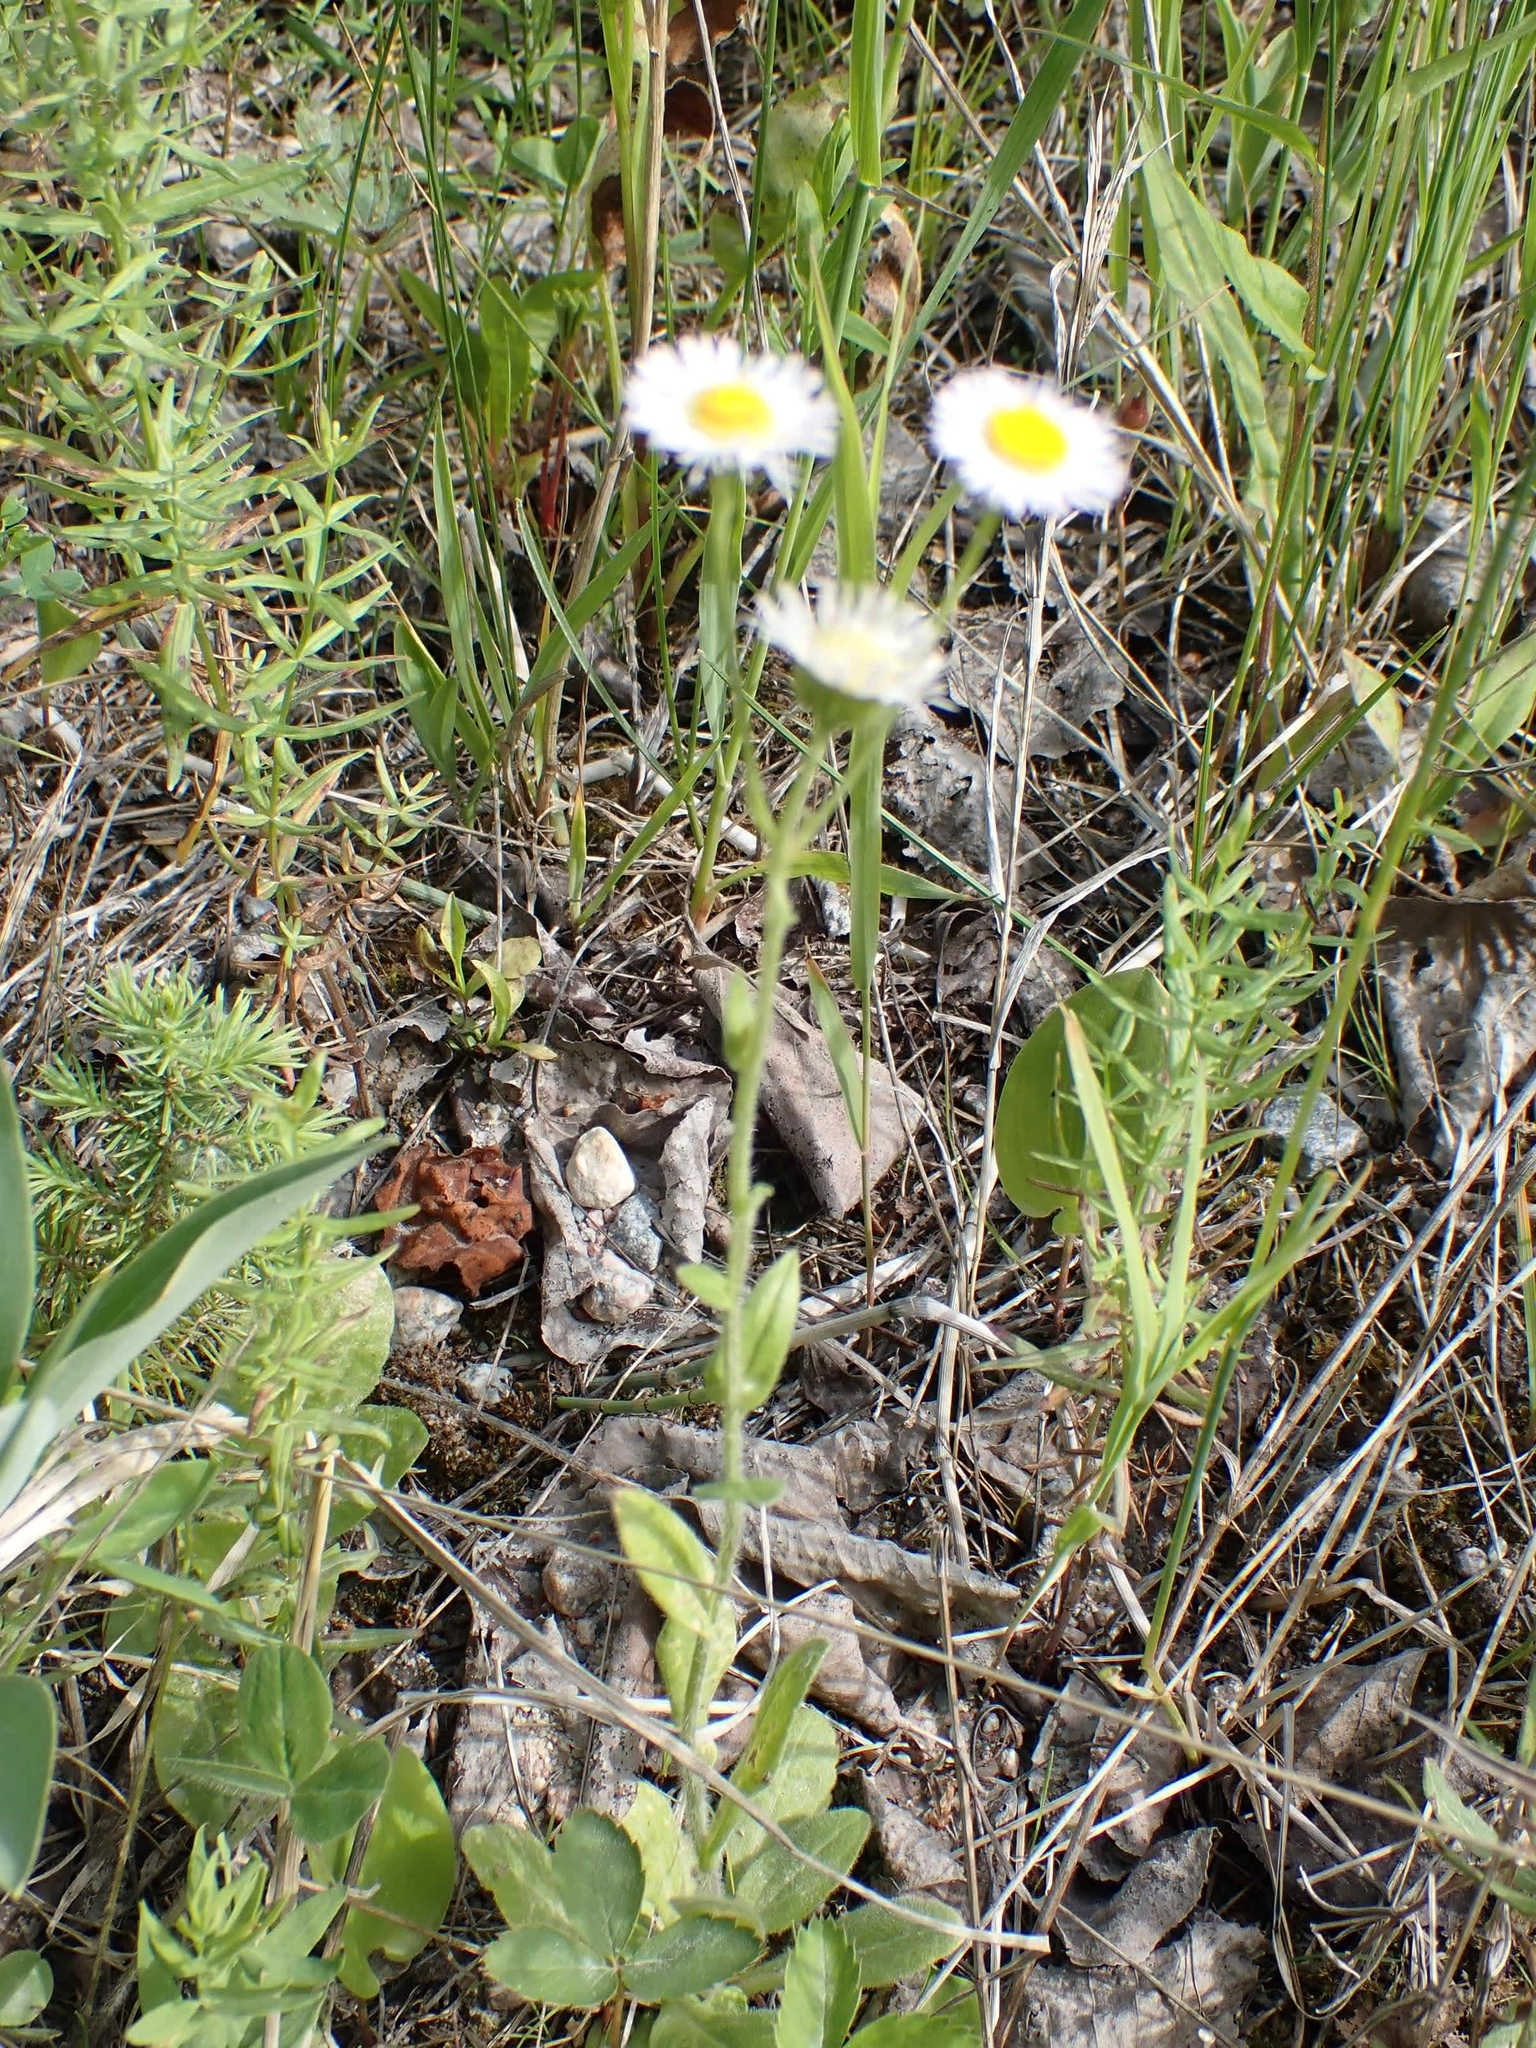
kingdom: Plantae
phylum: Tracheophyta
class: Magnoliopsida
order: Asterales
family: Asteraceae
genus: Erigeron
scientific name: Erigeron glabellus
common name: Smooth fleabane
